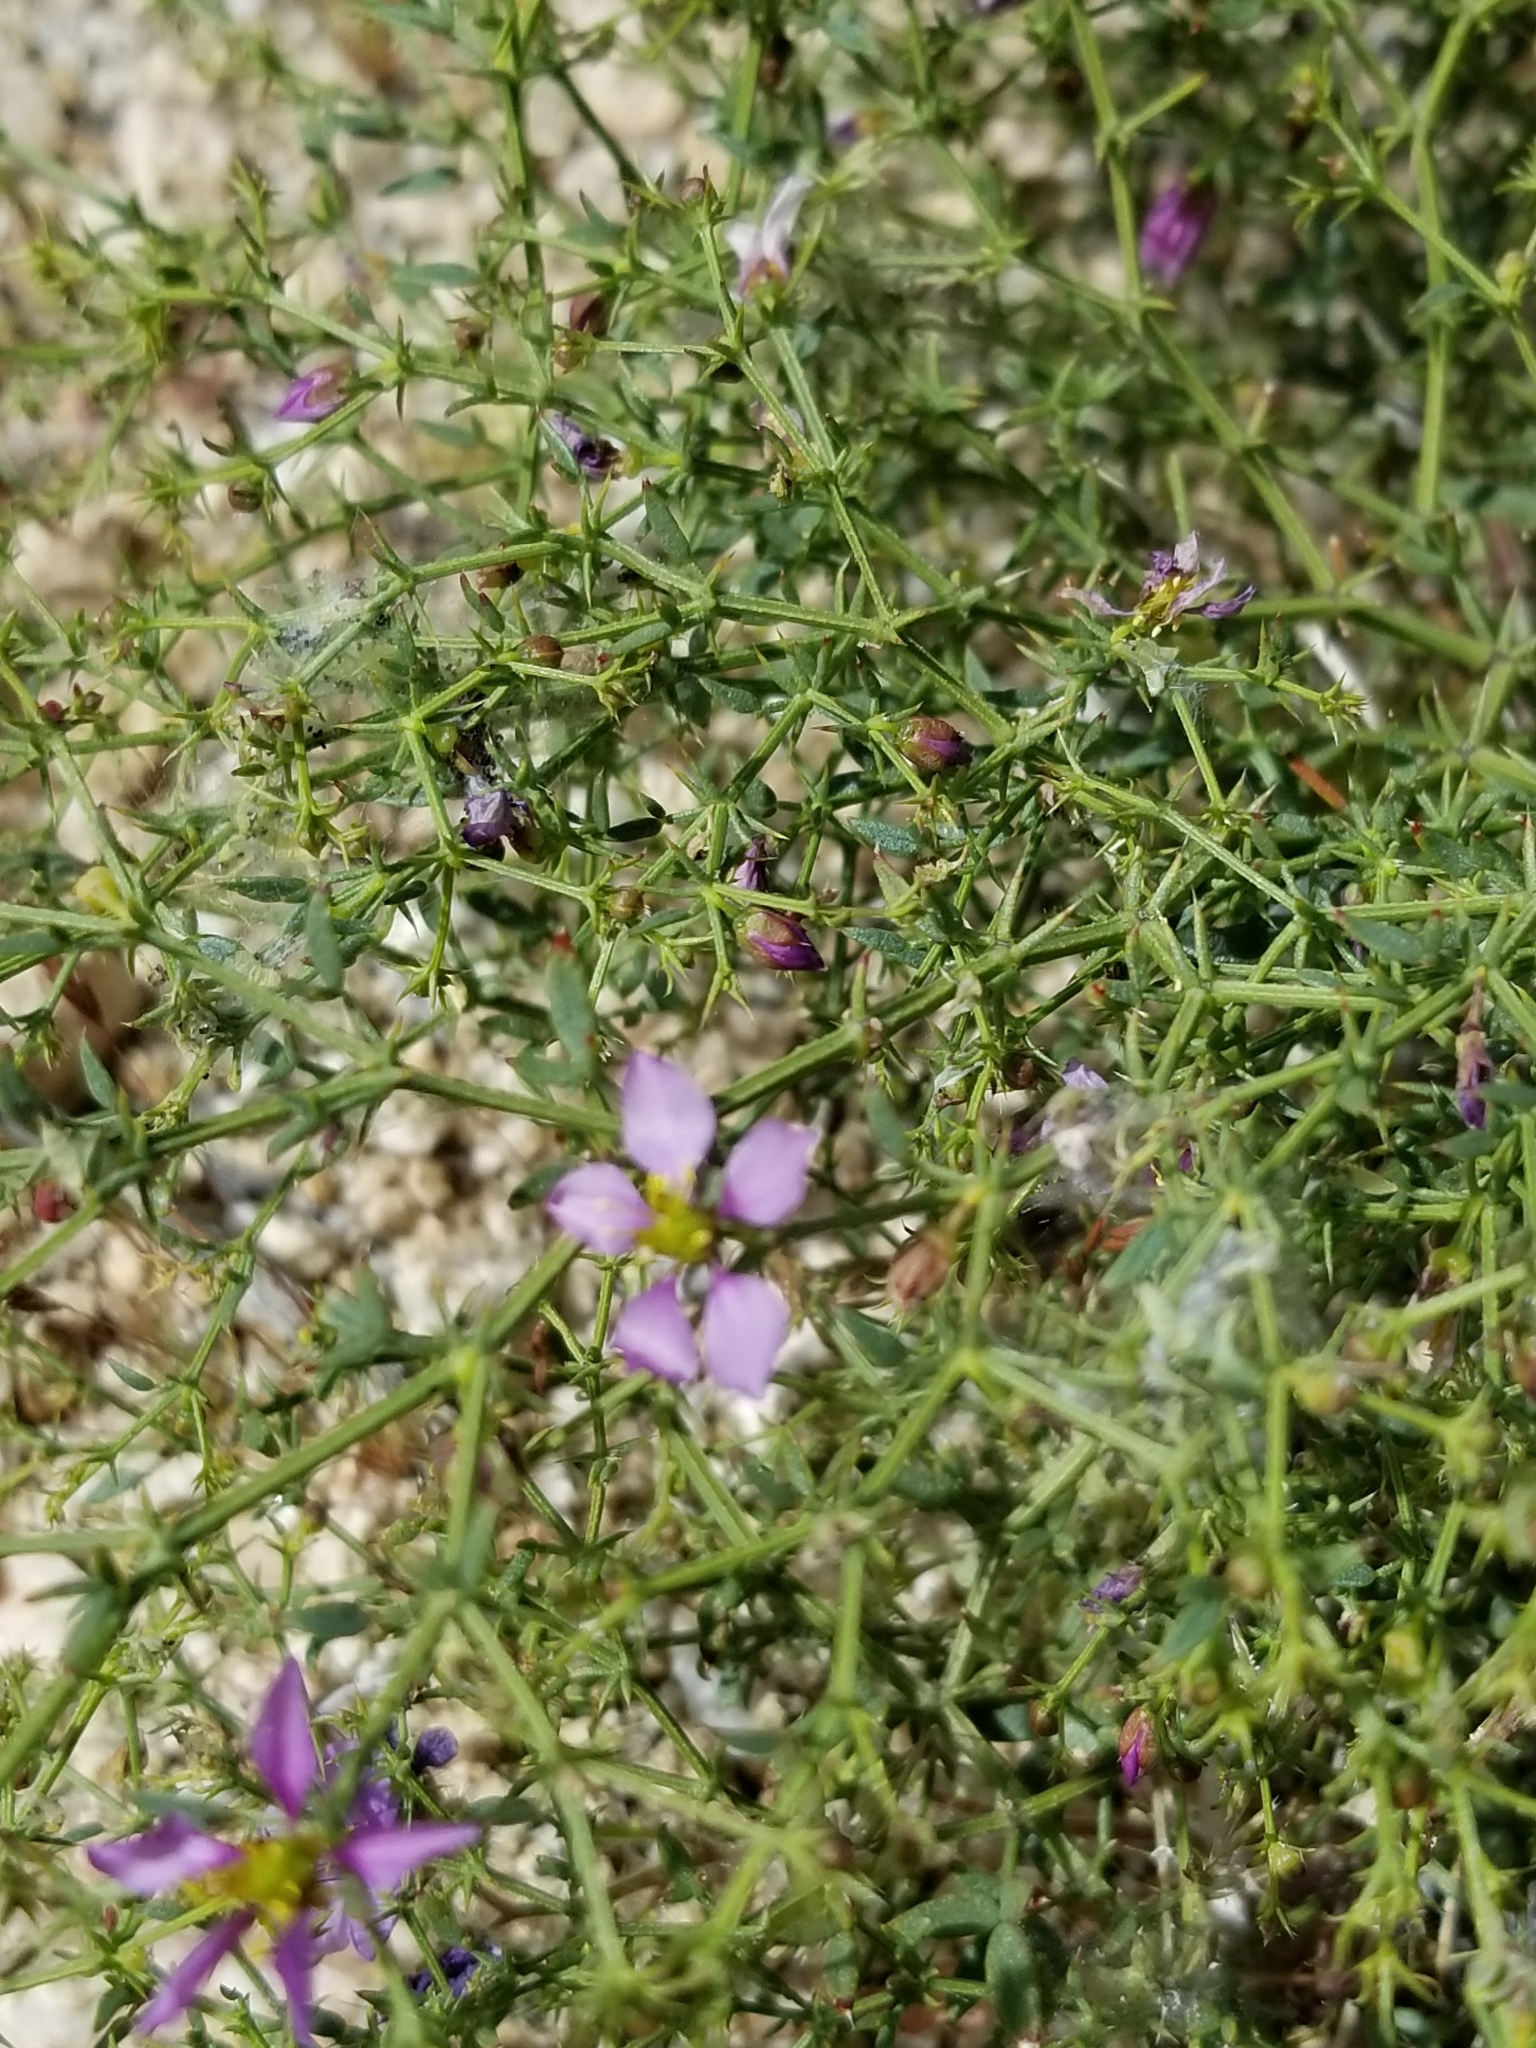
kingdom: Plantae
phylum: Tracheophyta
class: Magnoliopsida
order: Zygophyllales
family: Zygophyllaceae
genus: Fagonia
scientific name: Fagonia laevis
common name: California fagonbush
